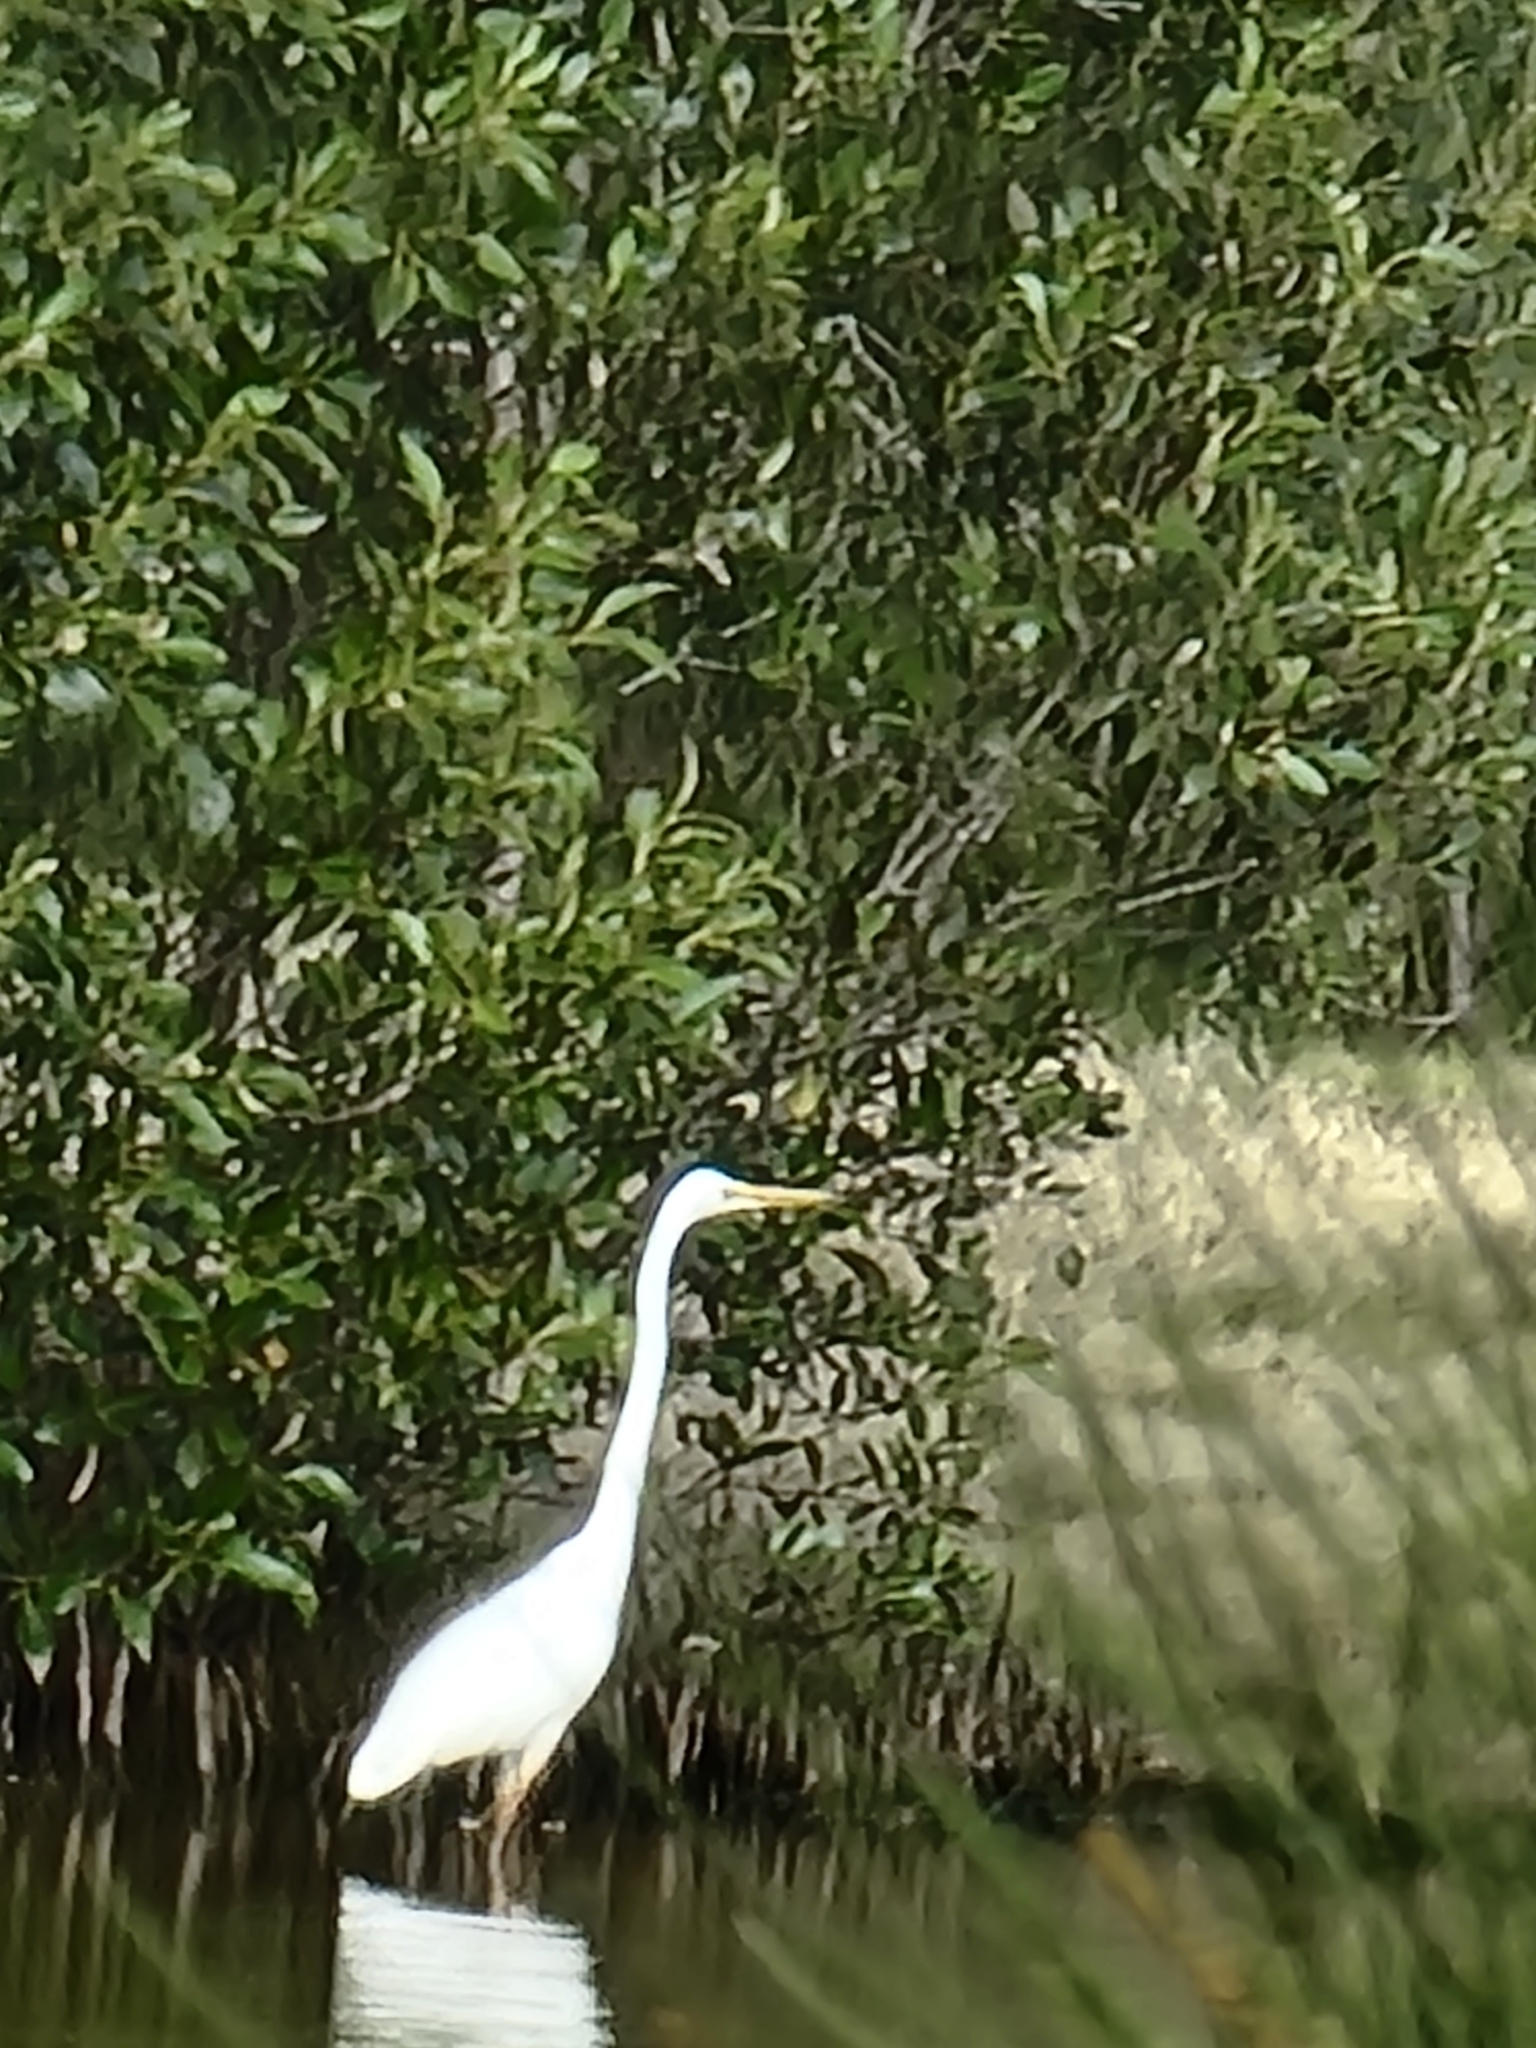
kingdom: Animalia
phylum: Chordata
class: Aves
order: Pelecaniformes
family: Ardeidae
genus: Ardea
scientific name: Ardea alba
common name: Great egret
